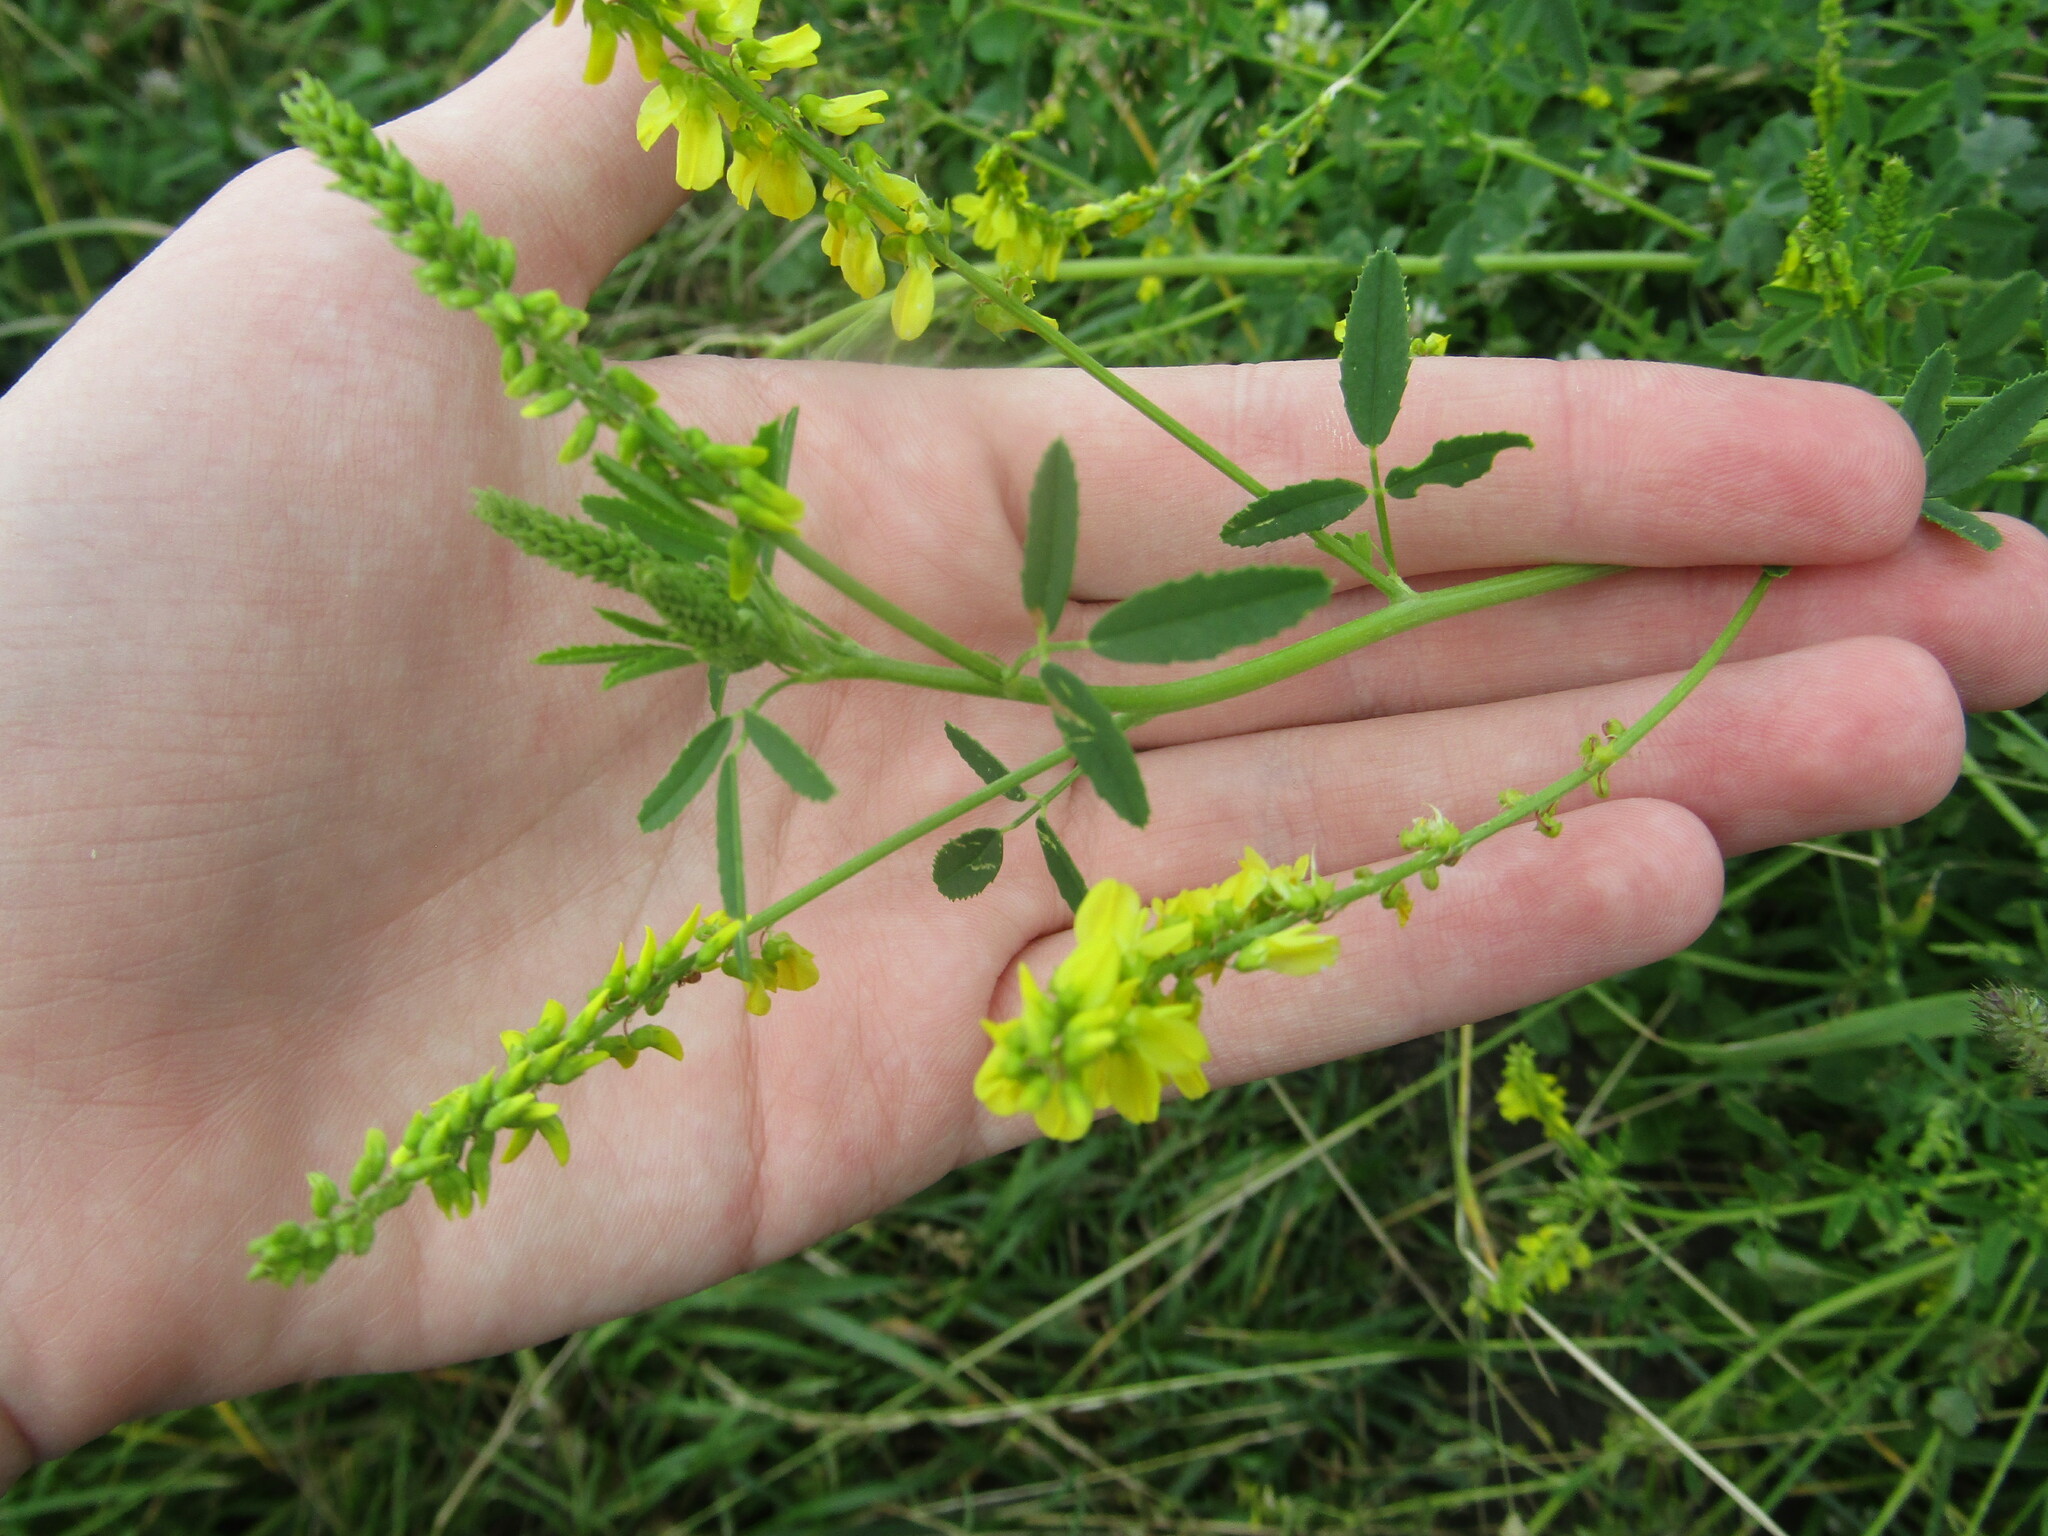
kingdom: Plantae
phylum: Tracheophyta
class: Magnoliopsida
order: Fabales
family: Fabaceae
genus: Melilotus
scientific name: Melilotus officinalis
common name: Sweetclover
